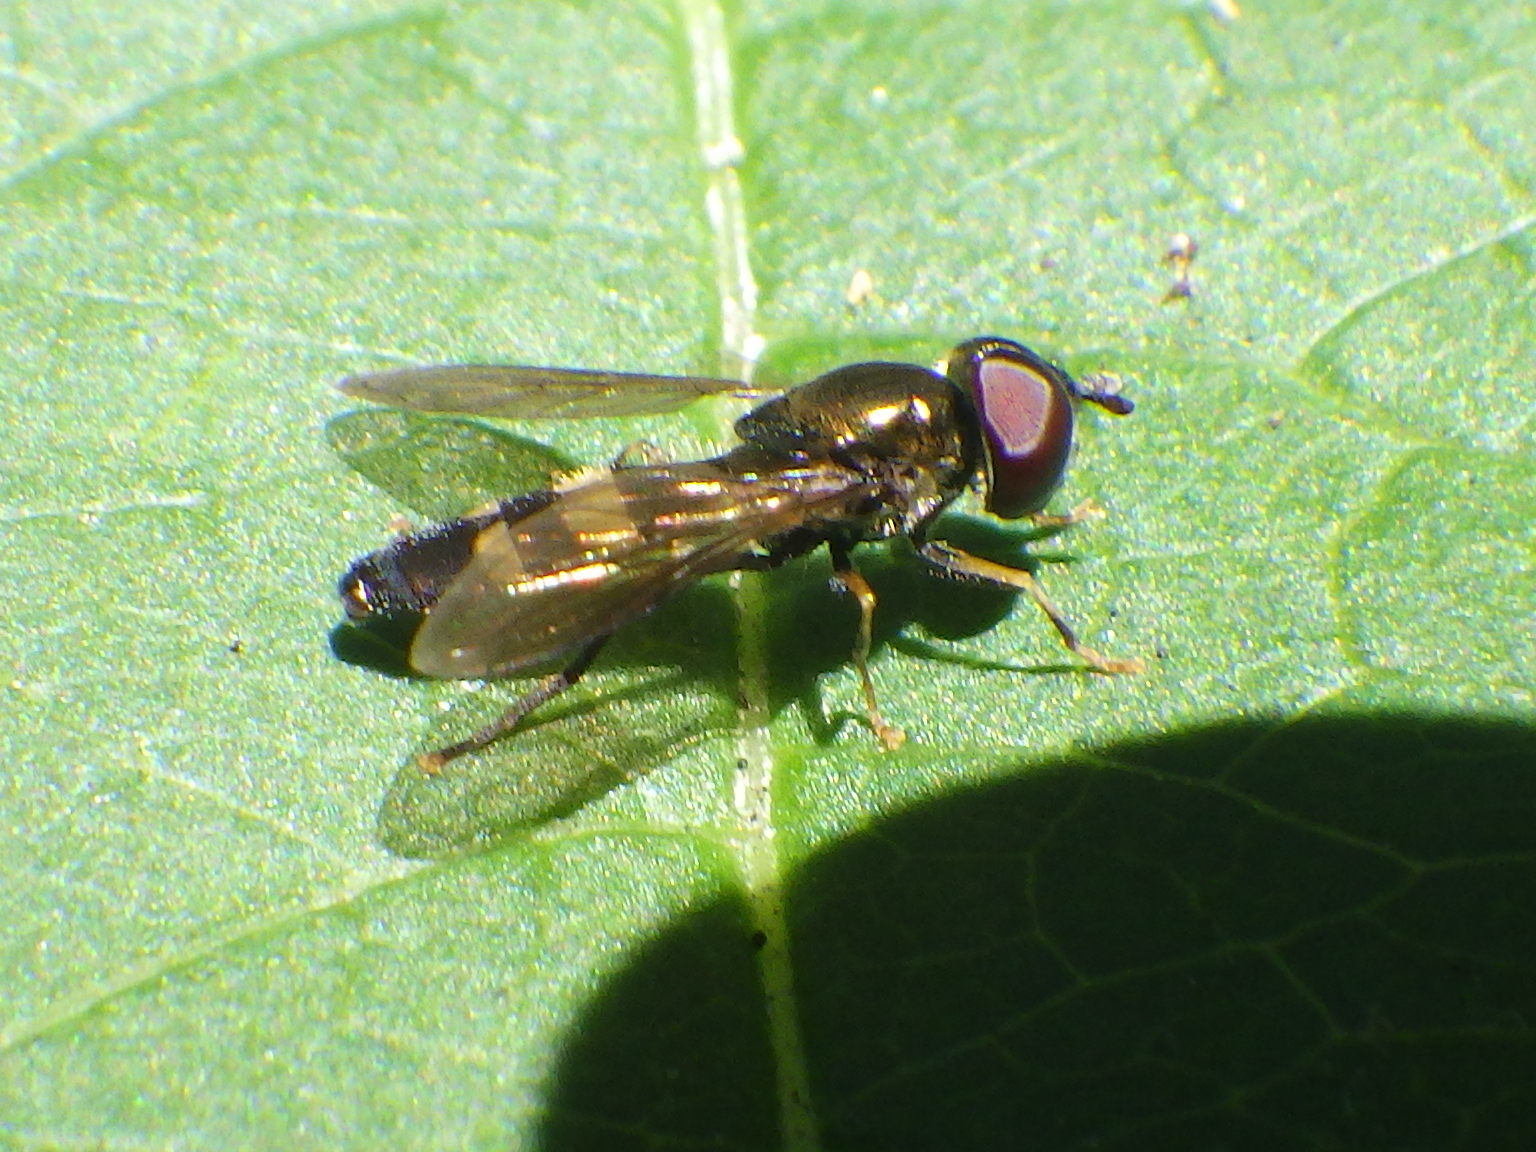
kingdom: Animalia
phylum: Arthropoda
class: Insecta
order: Diptera
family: Syrphidae
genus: Pyrophaena
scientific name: Pyrophaena rosarum
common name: Fourspot sedgesitter
